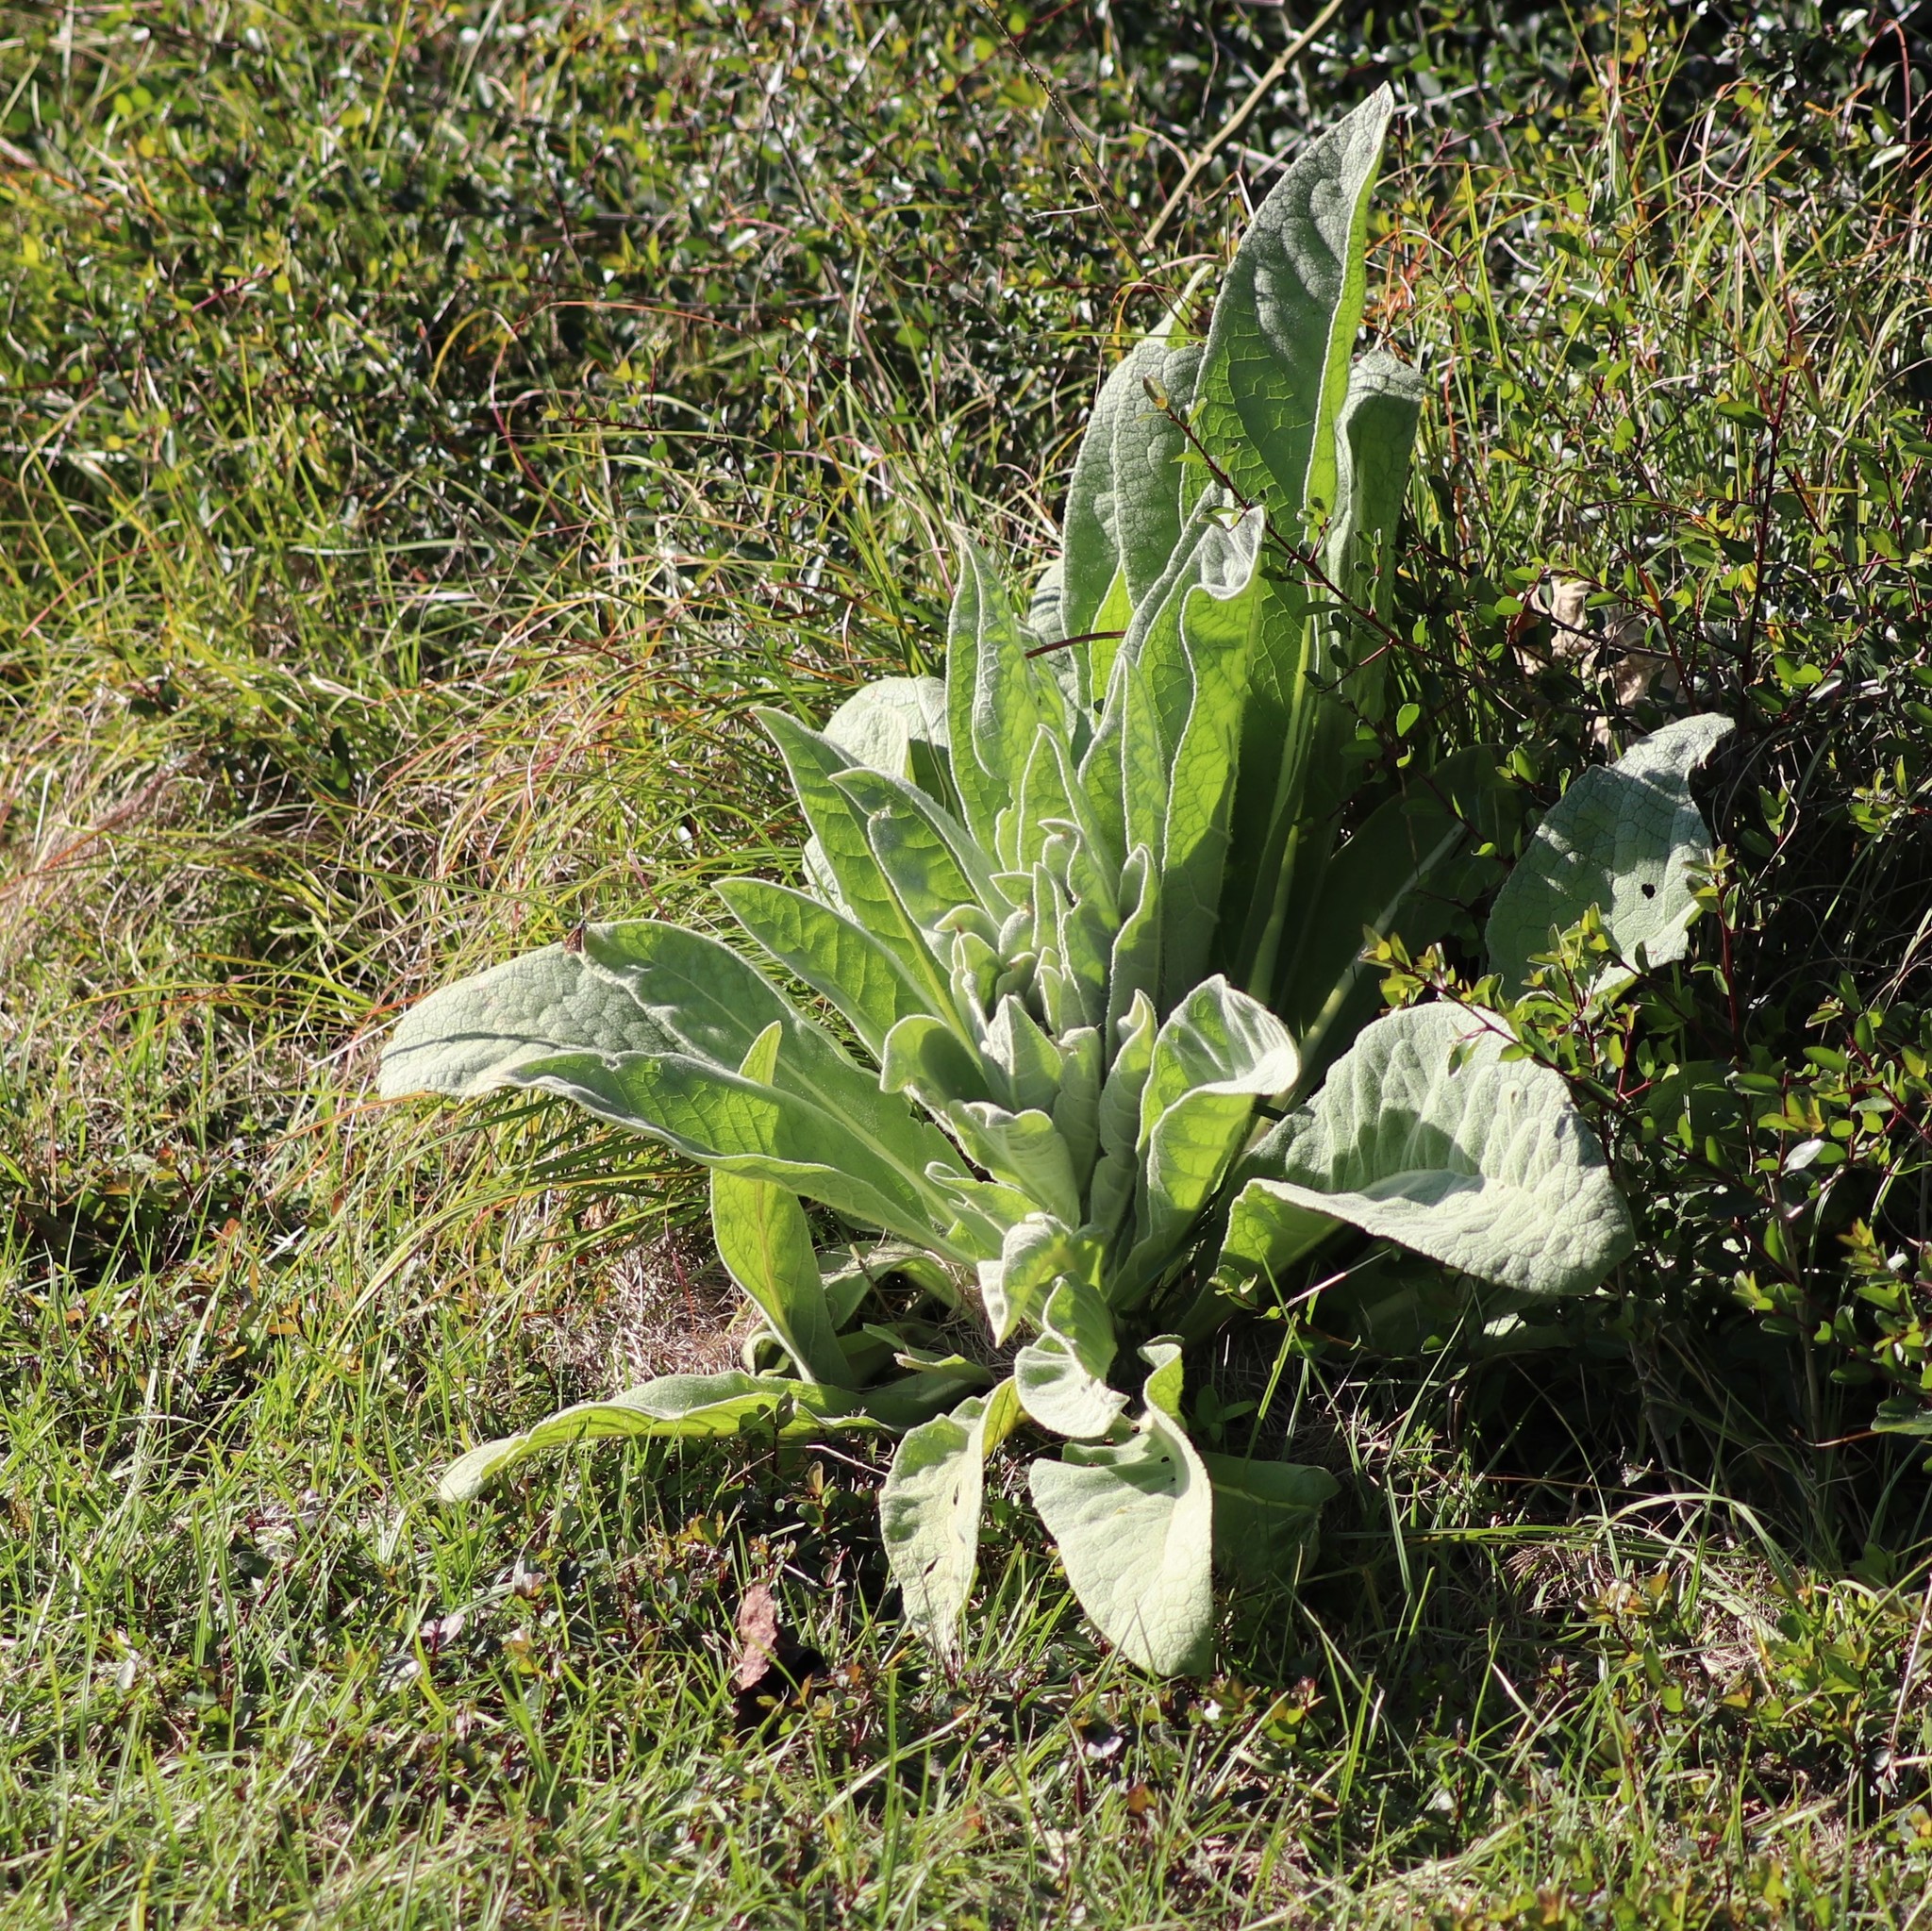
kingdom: Plantae
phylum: Tracheophyta
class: Magnoliopsida
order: Lamiales
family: Scrophulariaceae
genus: Verbascum
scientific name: Verbascum thapsus
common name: Common mullein
